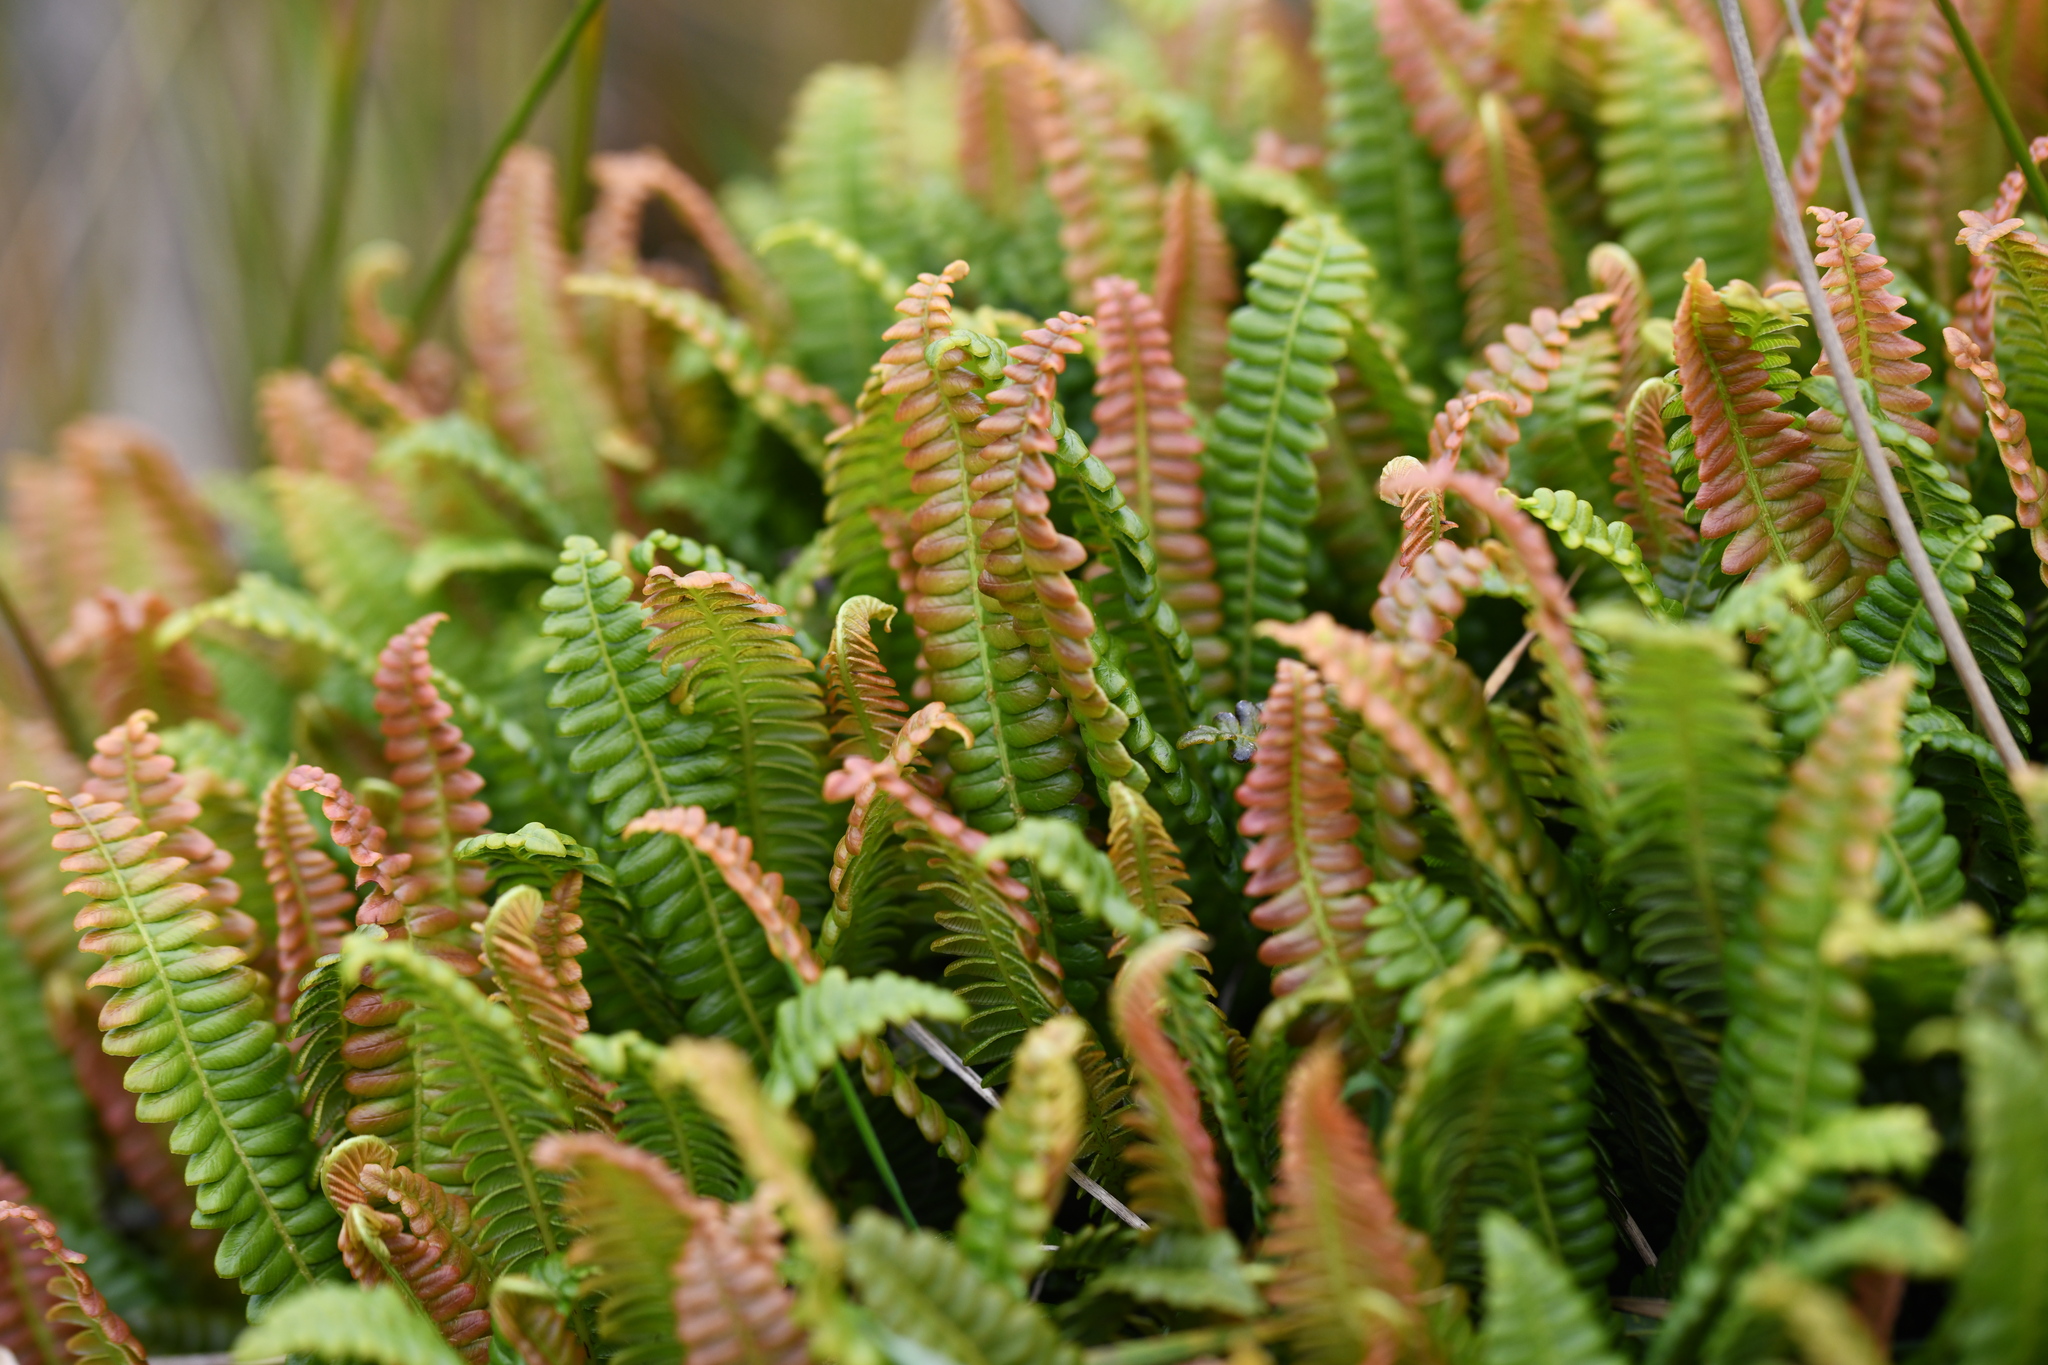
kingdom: Plantae
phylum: Tracheophyta
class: Polypodiopsida
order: Polypodiales
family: Blechnaceae
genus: Austroblechnum
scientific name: Austroblechnum penna-marina
